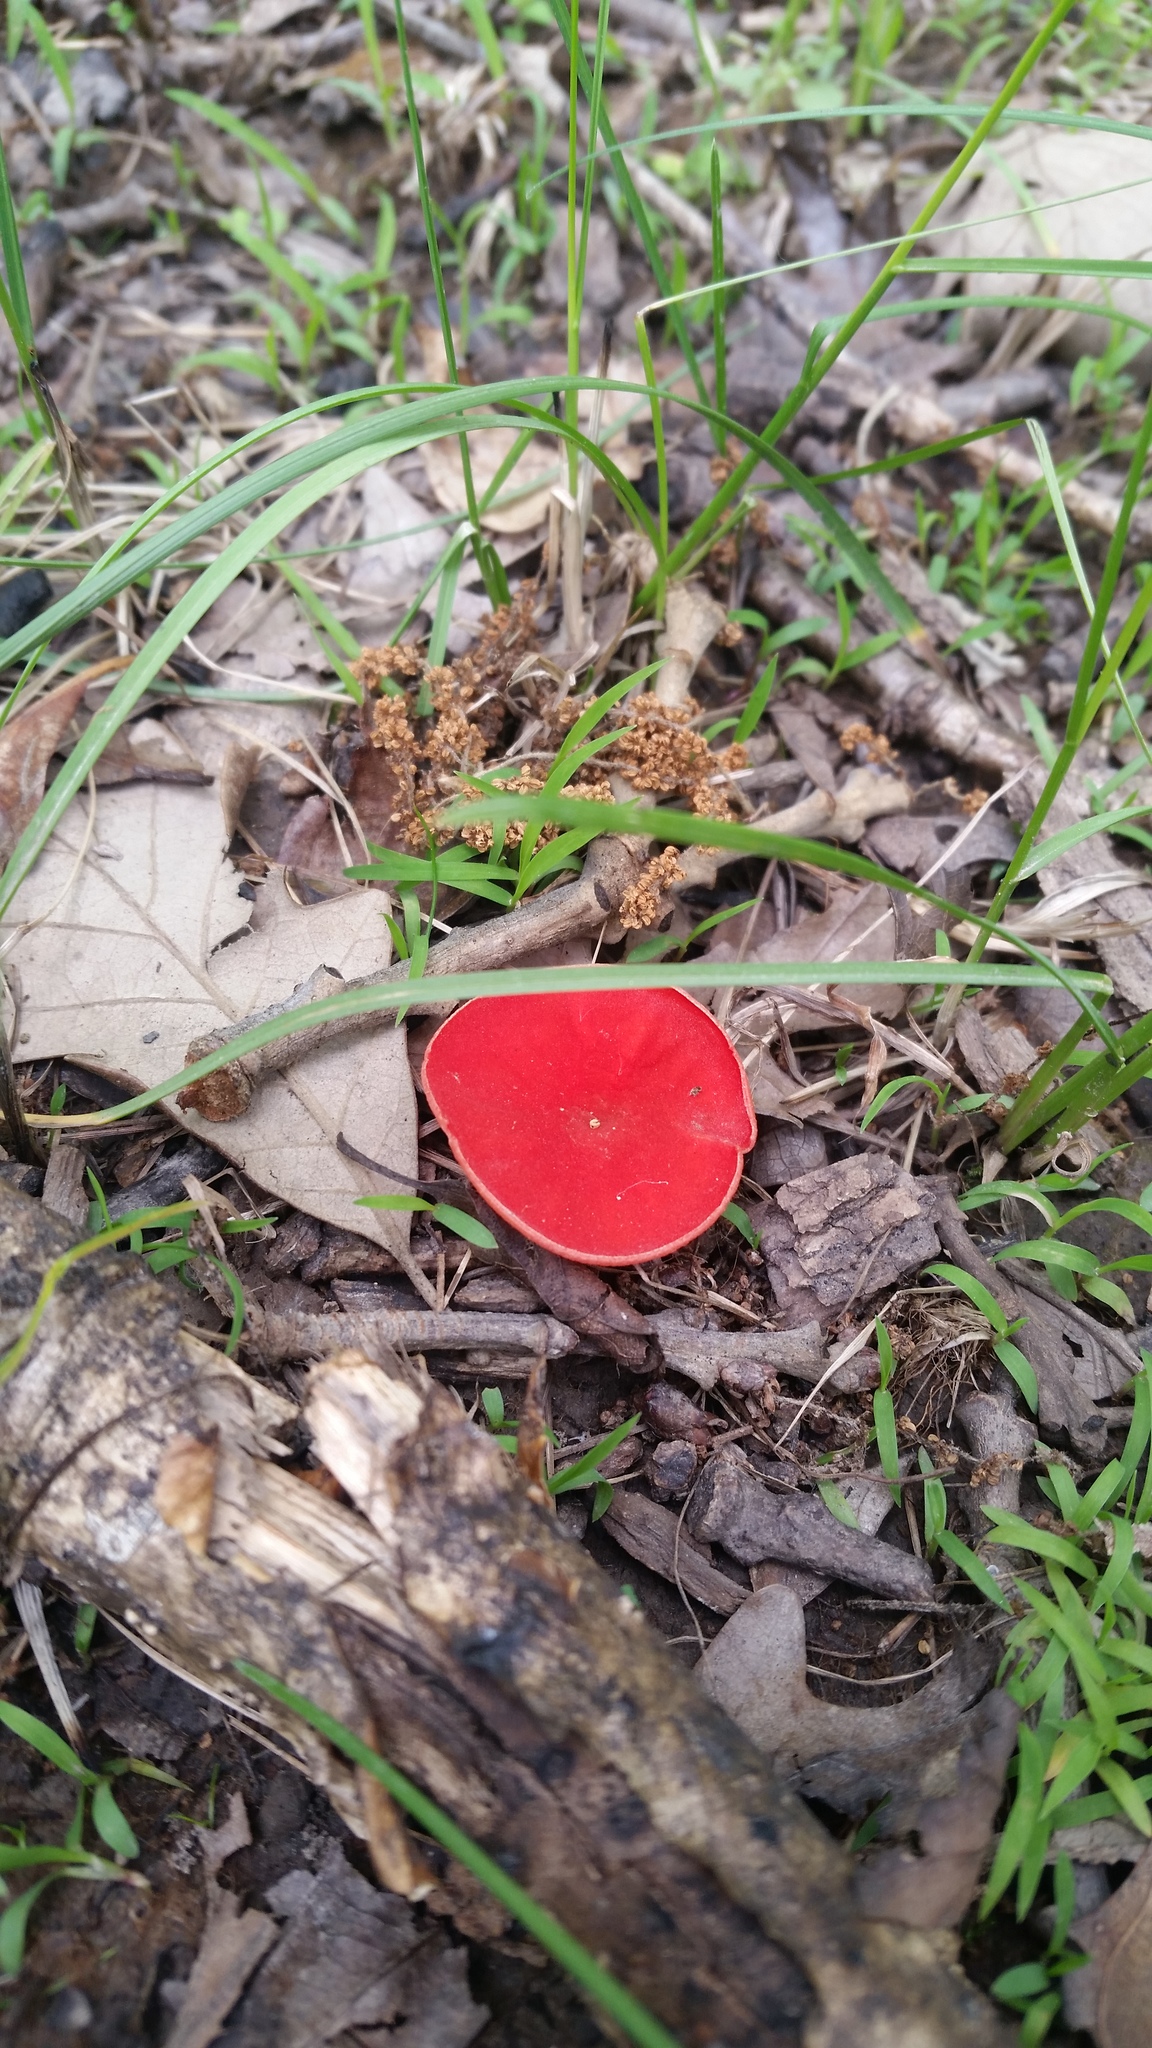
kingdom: Fungi
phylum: Ascomycota
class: Pezizomycetes
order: Pezizales
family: Sarcoscyphaceae
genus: Sarcoscypha
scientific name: Sarcoscypha occidentalis
